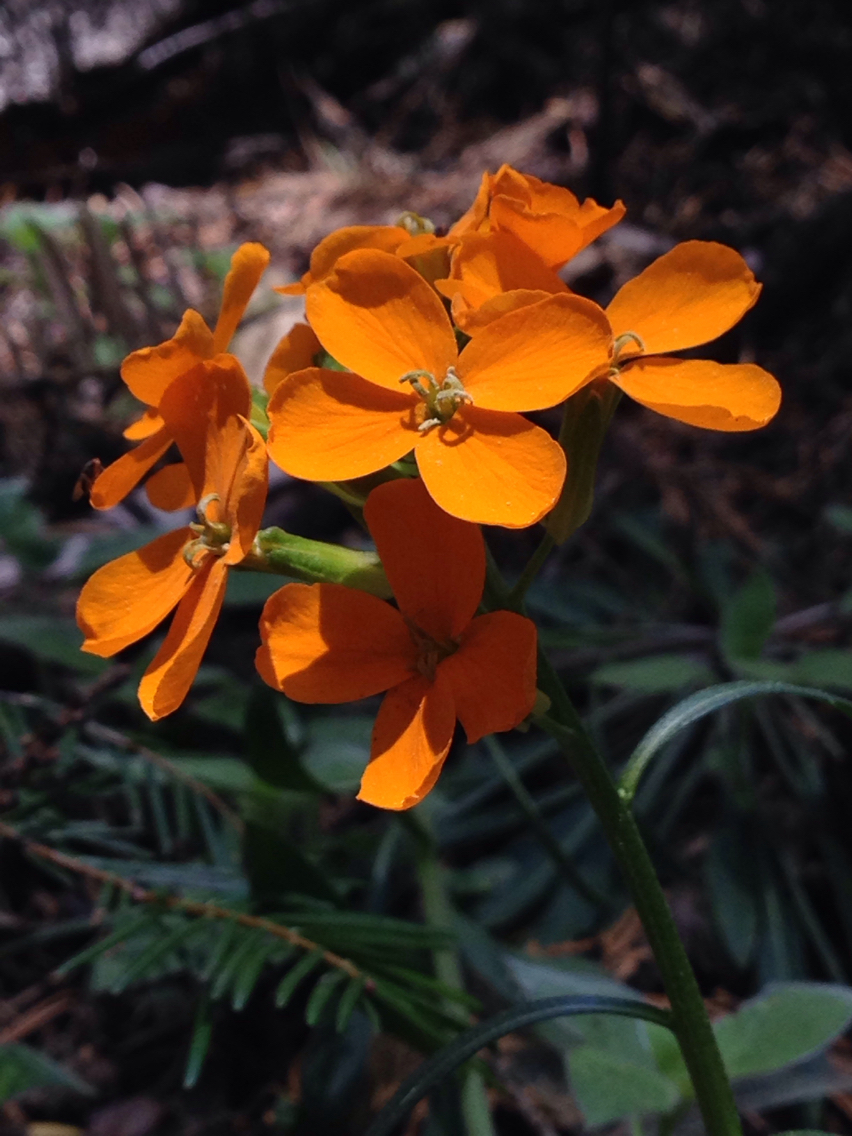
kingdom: Plantae
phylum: Tracheophyta
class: Magnoliopsida
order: Brassicales
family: Brassicaceae
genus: Erysimum
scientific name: Erysimum capitatum
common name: Western wallflower
